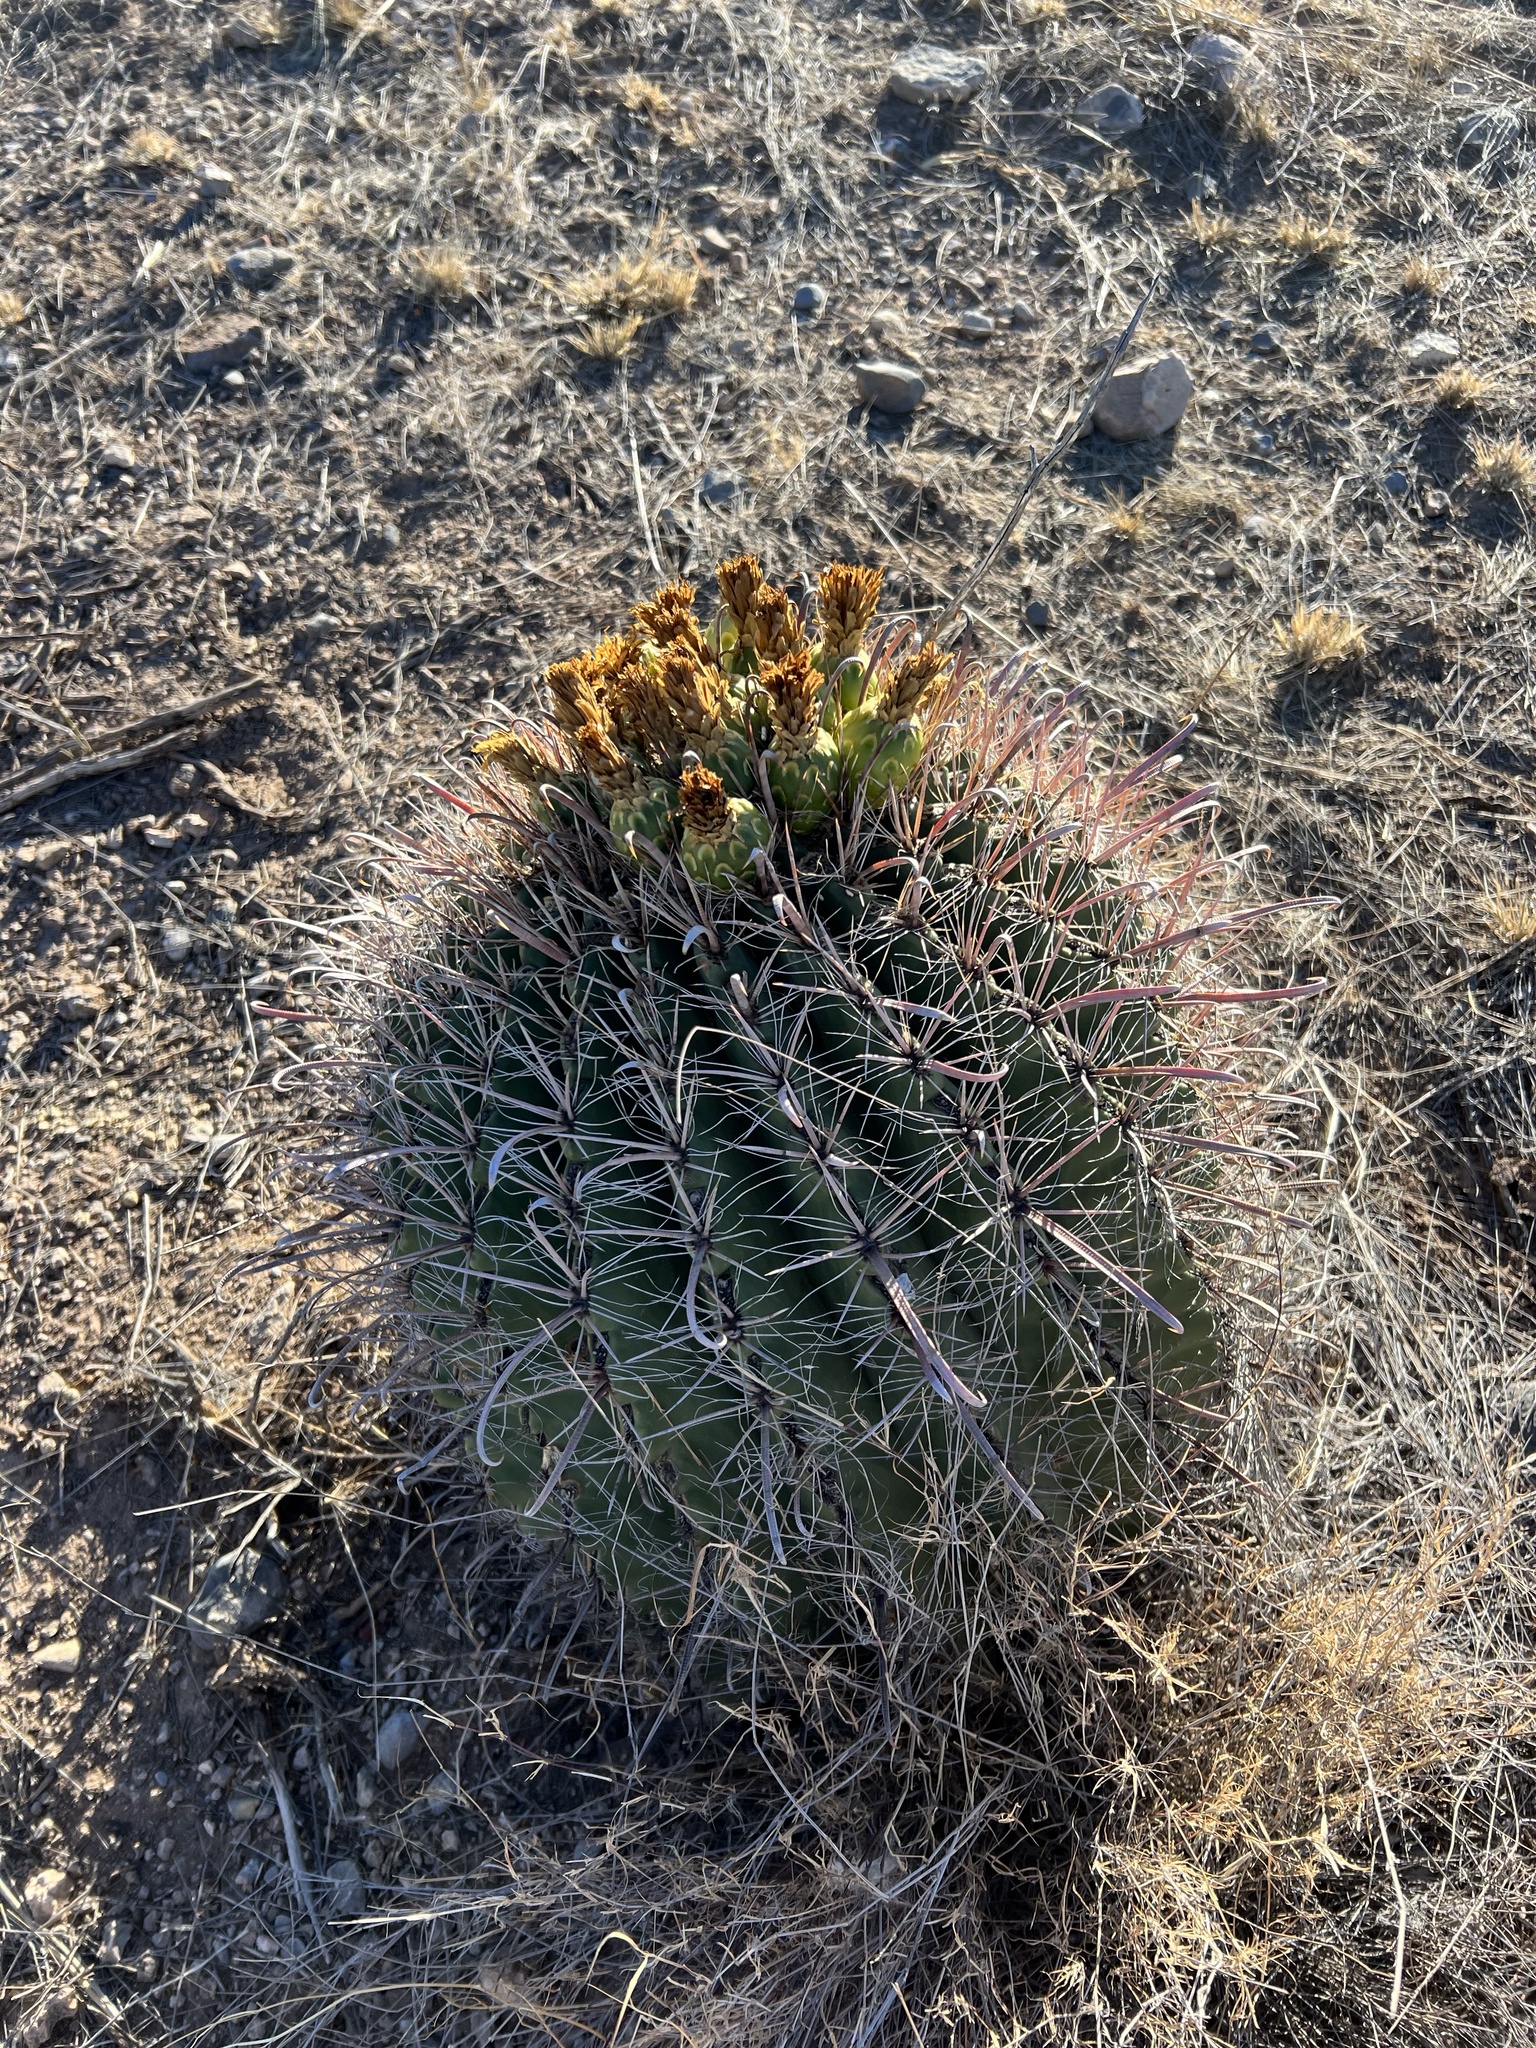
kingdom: Plantae
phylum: Tracheophyta
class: Magnoliopsida
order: Caryophyllales
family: Cactaceae
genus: Ferocactus
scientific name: Ferocactus wislizeni
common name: Candy barrel cactus
